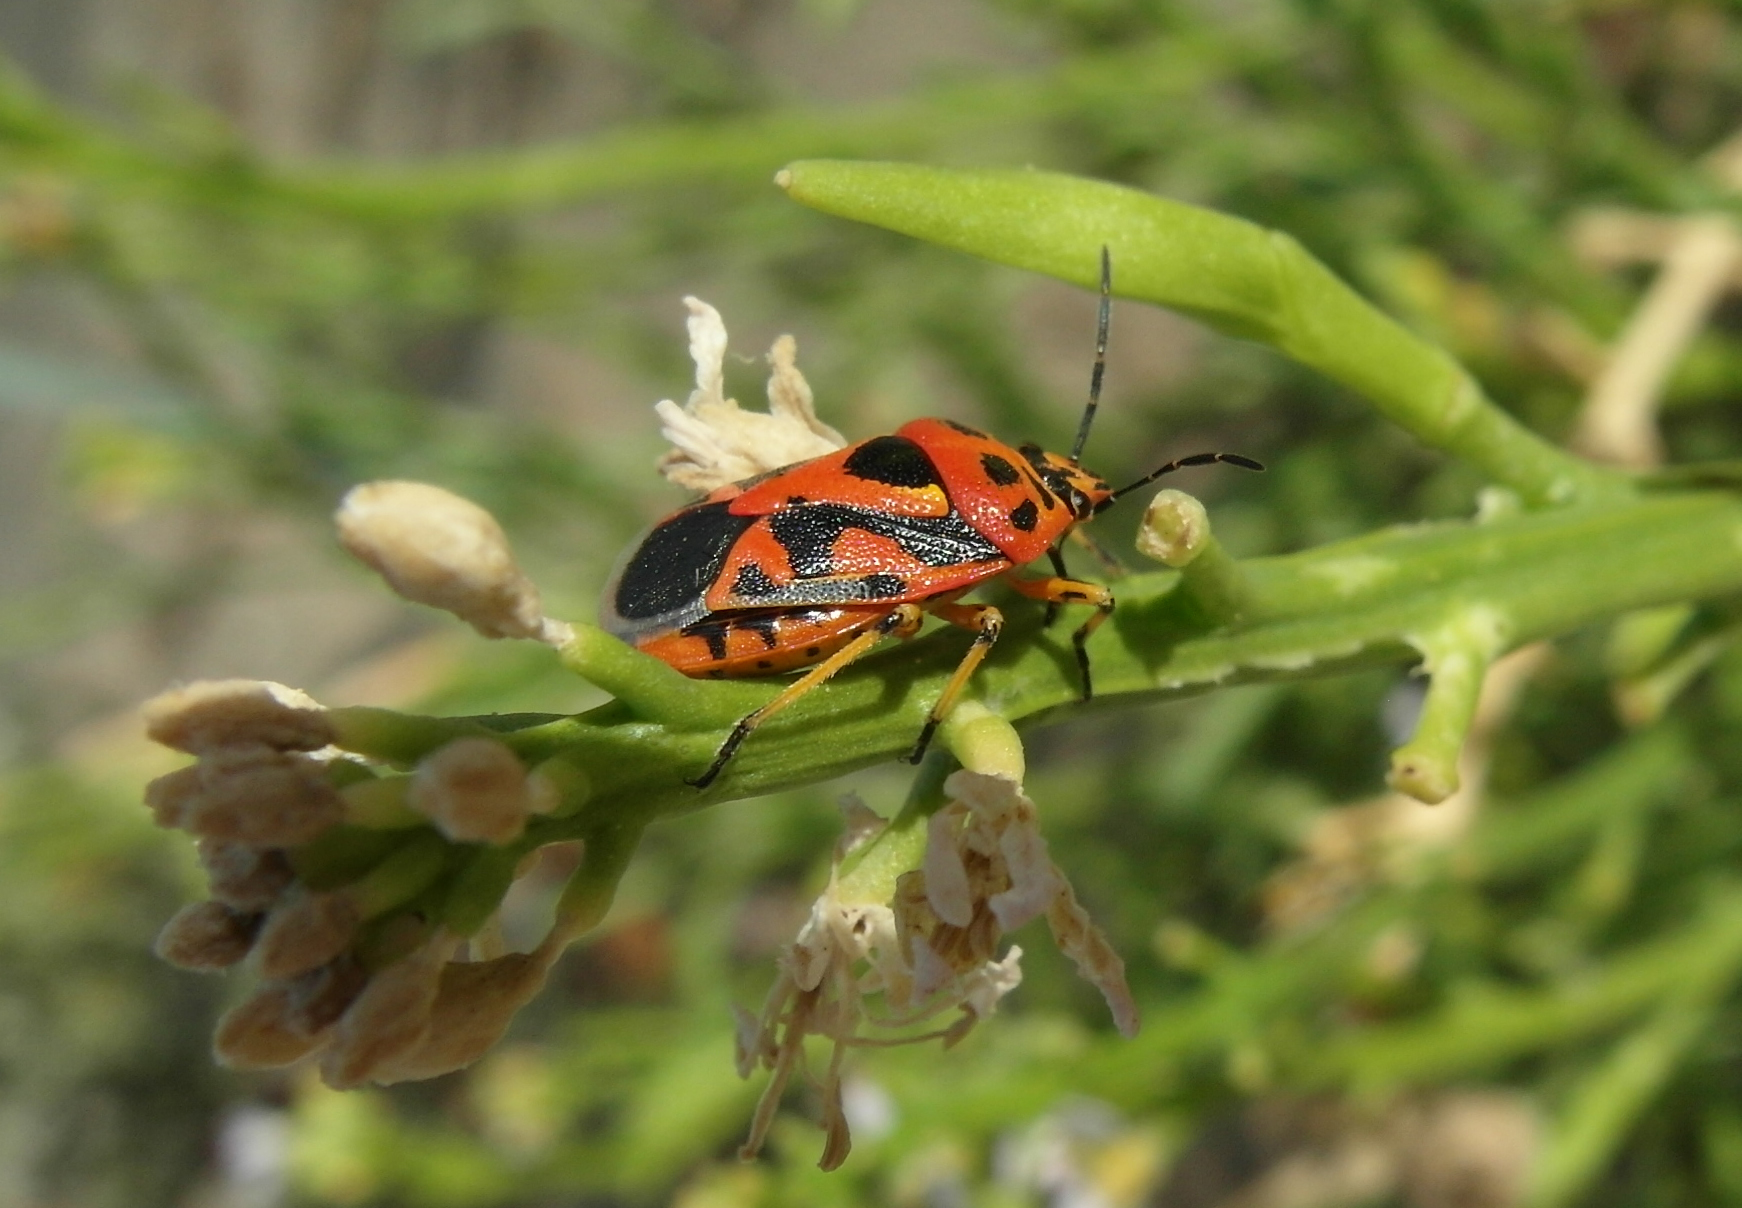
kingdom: Animalia
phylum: Arthropoda
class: Insecta
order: Hemiptera
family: Pentatomidae
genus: Eurydema
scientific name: Eurydema ornata
